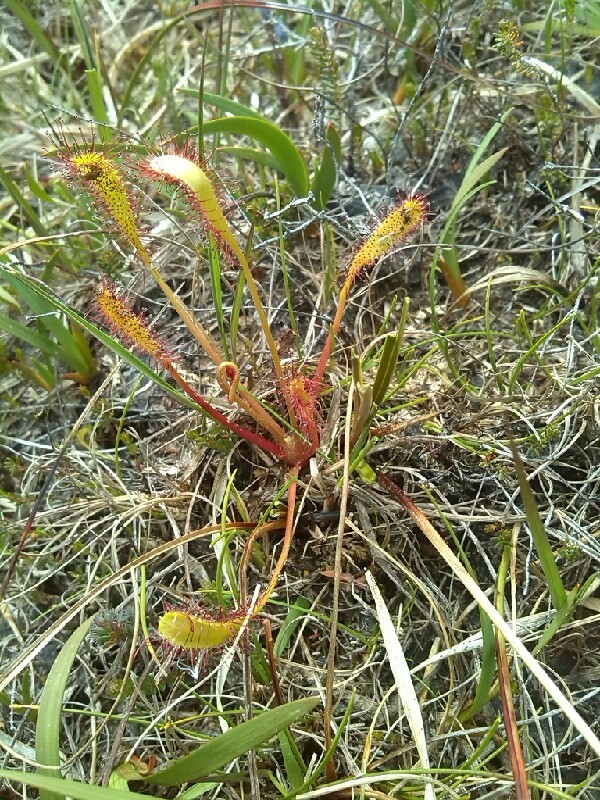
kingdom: Plantae
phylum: Tracheophyta
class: Magnoliopsida
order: Caryophyllales
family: Droseraceae
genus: Drosera
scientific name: Drosera anglica
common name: Great sundew
